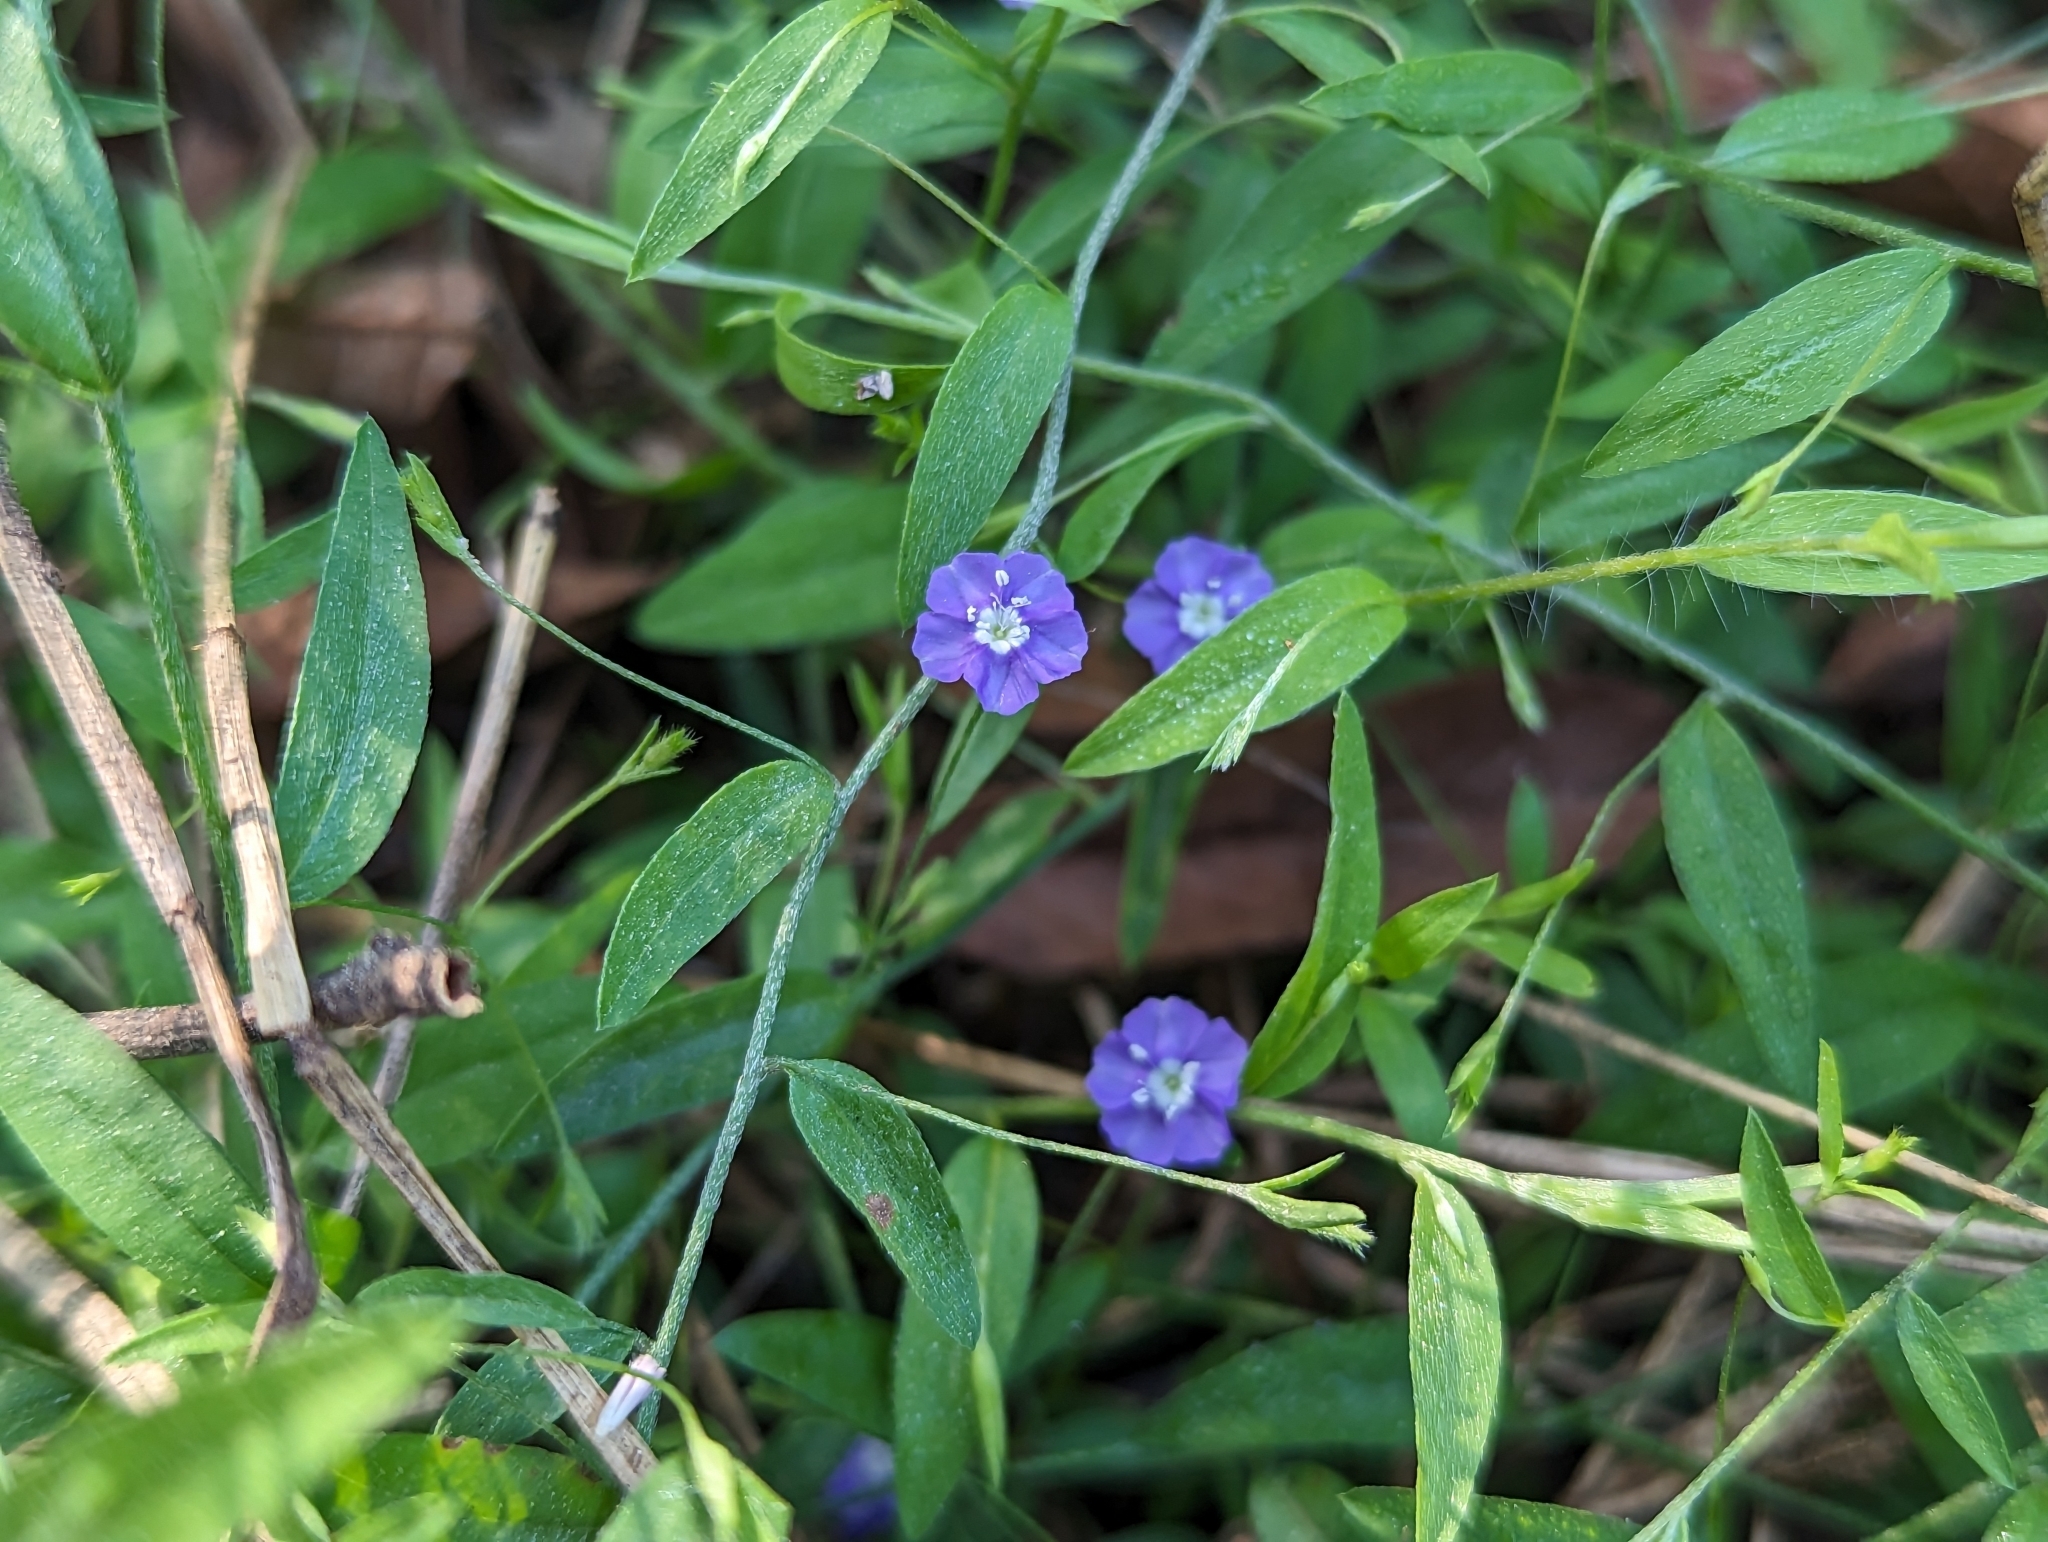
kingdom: Plantae
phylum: Tracheophyta
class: Magnoliopsida
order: Solanales
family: Convolvulaceae
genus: Evolvulus
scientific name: Evolvulus alsinoides
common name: Slender dwarf morning-glory
